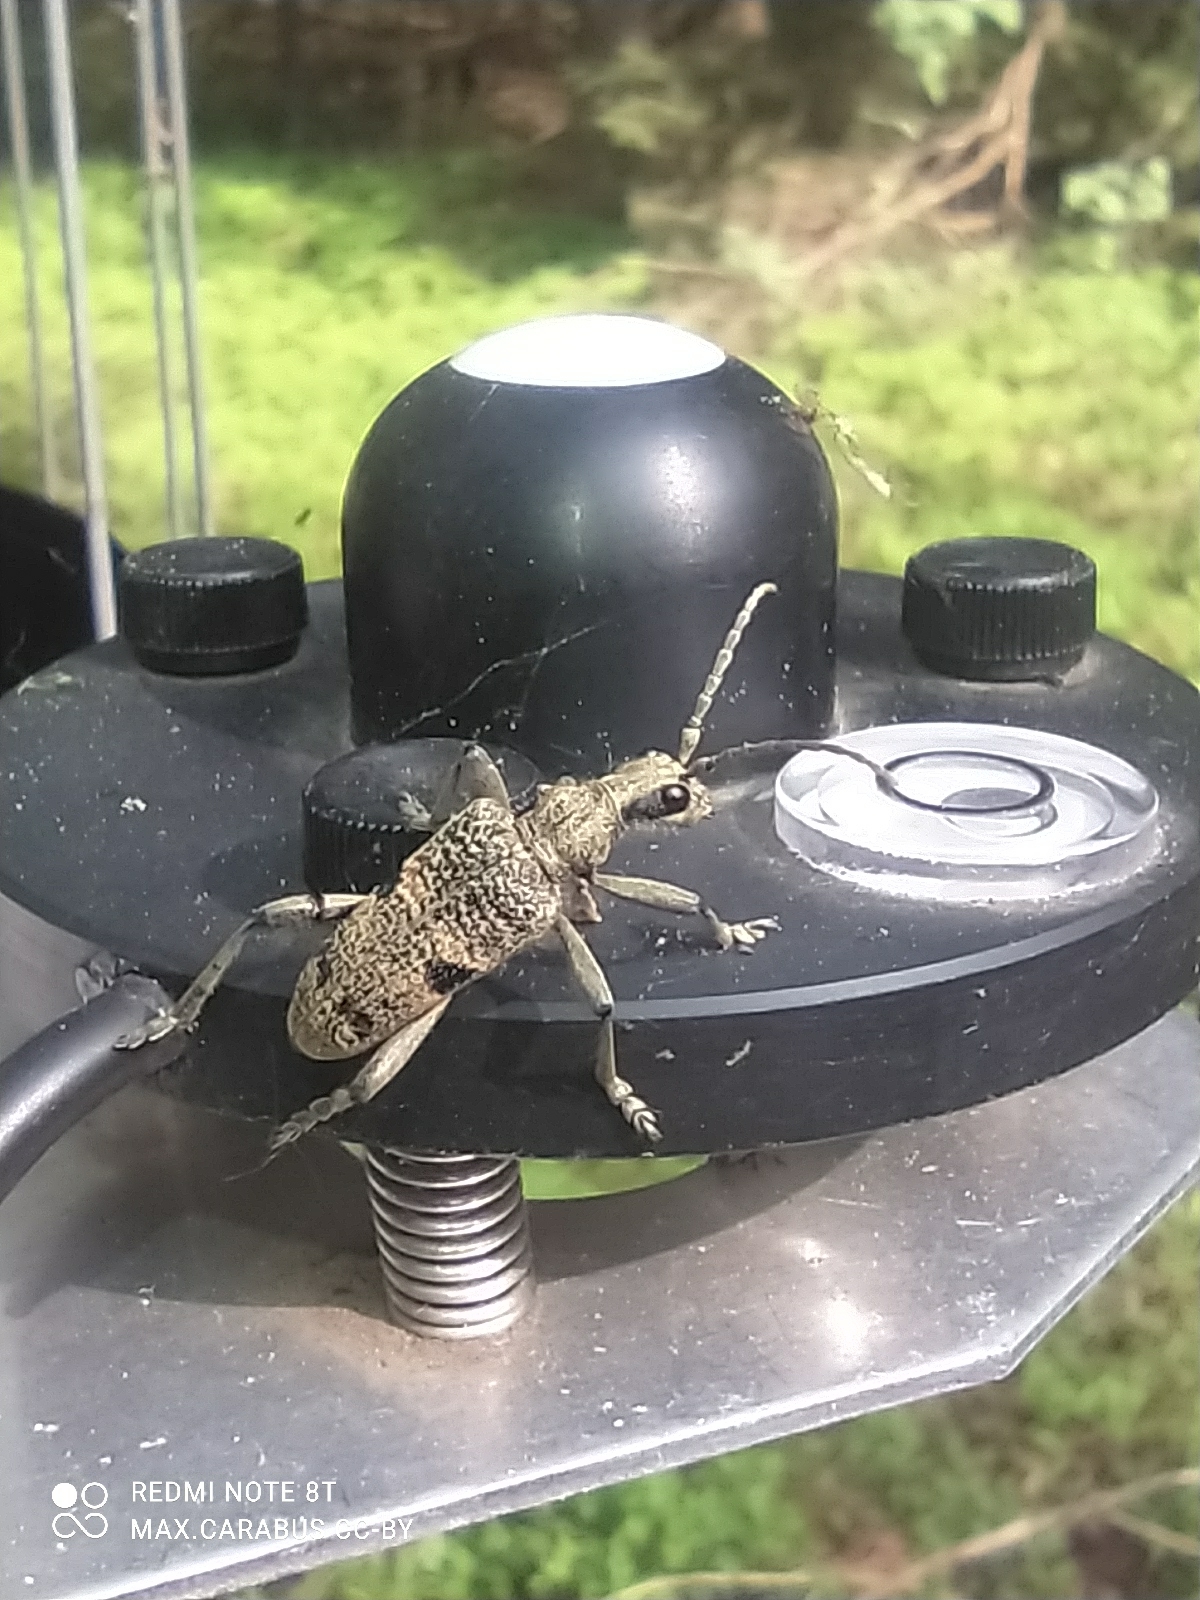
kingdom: Animalia
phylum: Arthropoda
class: Insecta
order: Coleoptera
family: Cerambycidae
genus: Rhagium
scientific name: Rhagium mordax
